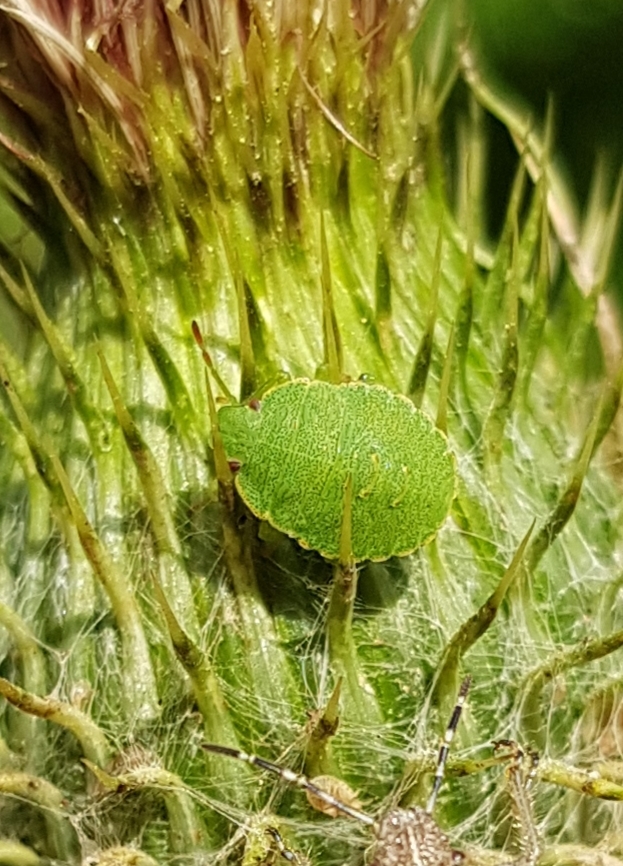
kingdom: Animalia
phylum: Arthropoda
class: Insecta
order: Hemiptera
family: Pentatomidae
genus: Palomena
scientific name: Palomena prasina
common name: Green shieldbug
